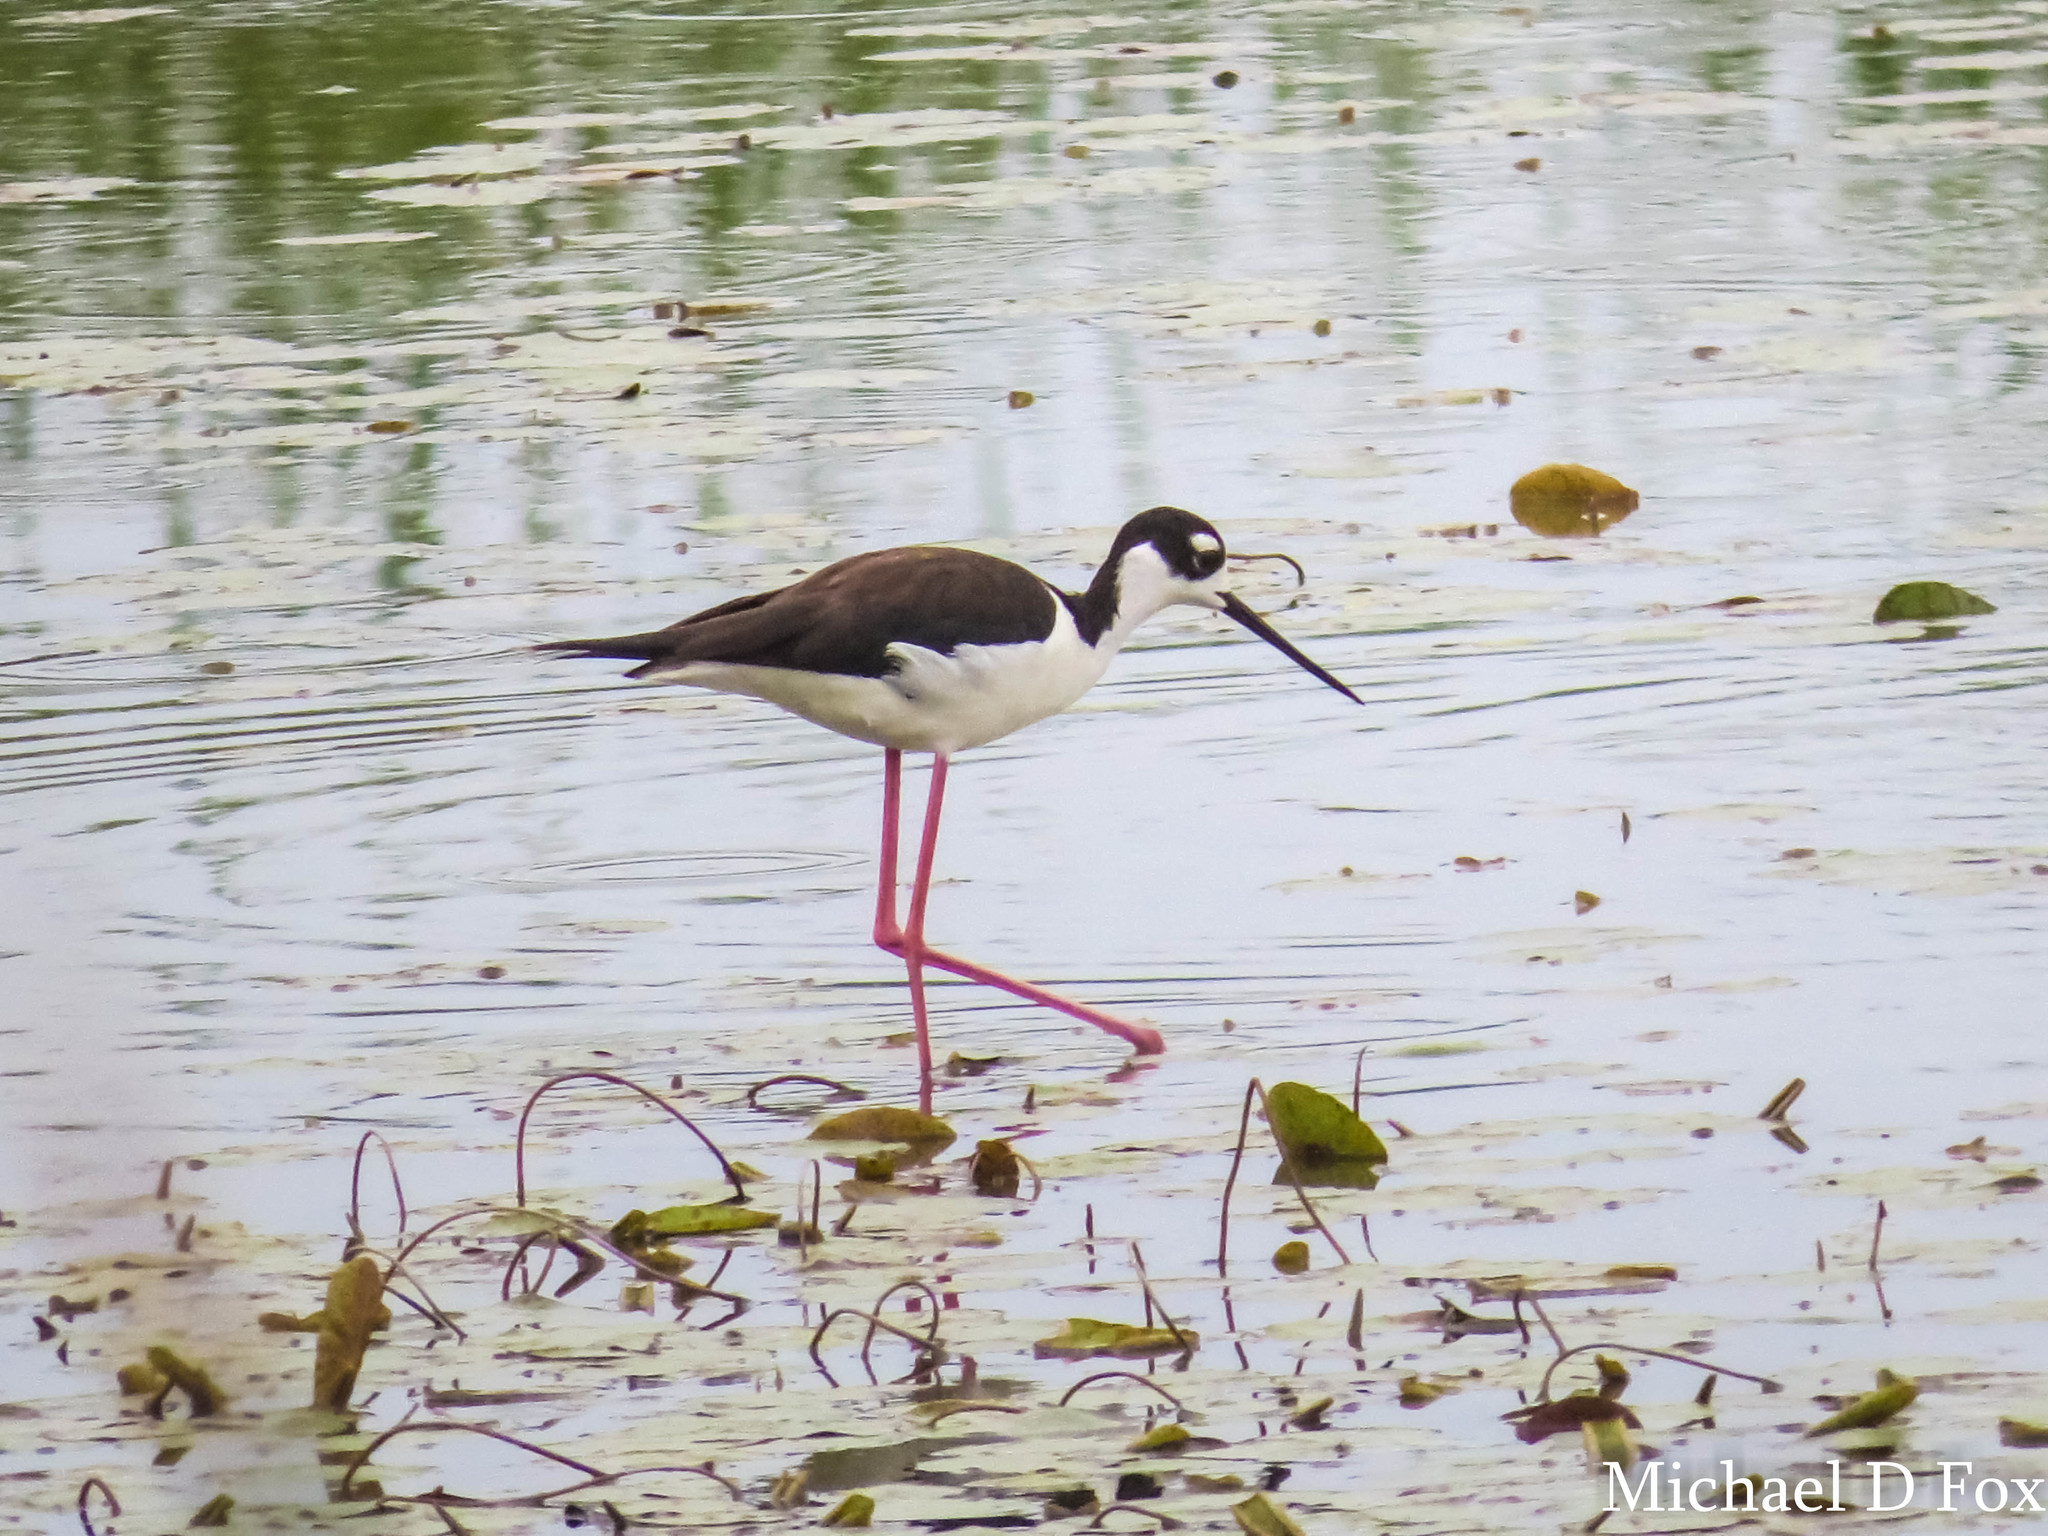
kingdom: Animalia
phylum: Chordata
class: Aves
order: Charadriiformes
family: Recurvirostridae
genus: Himantopus
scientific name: Himantopus mexicanus
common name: Black-necked stilt
